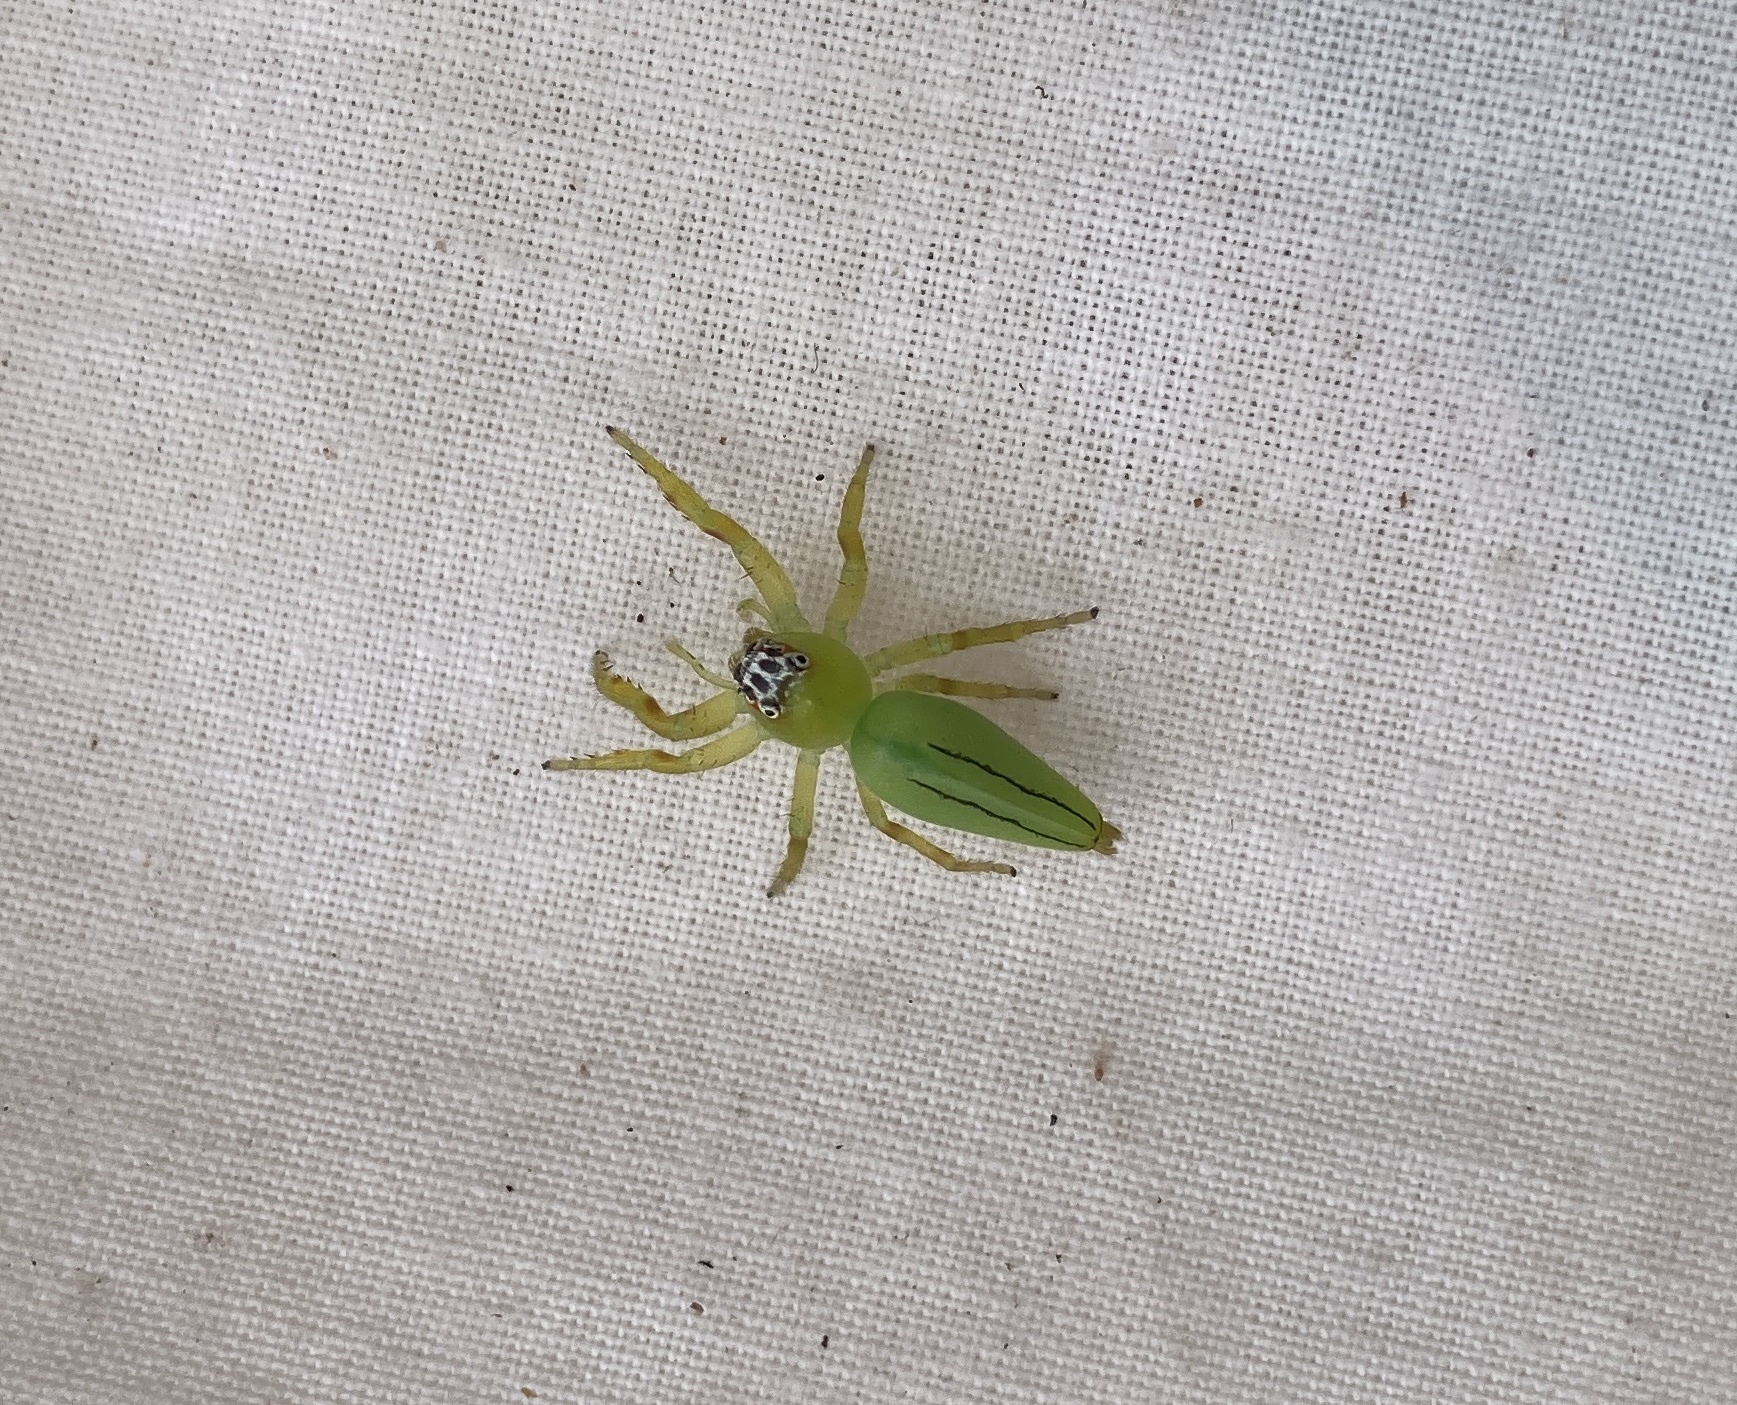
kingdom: Animalia
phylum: Arthropoda
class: Arachnida
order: Araneae
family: Salticidae
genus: Mopsus
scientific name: Mopsus mormon
